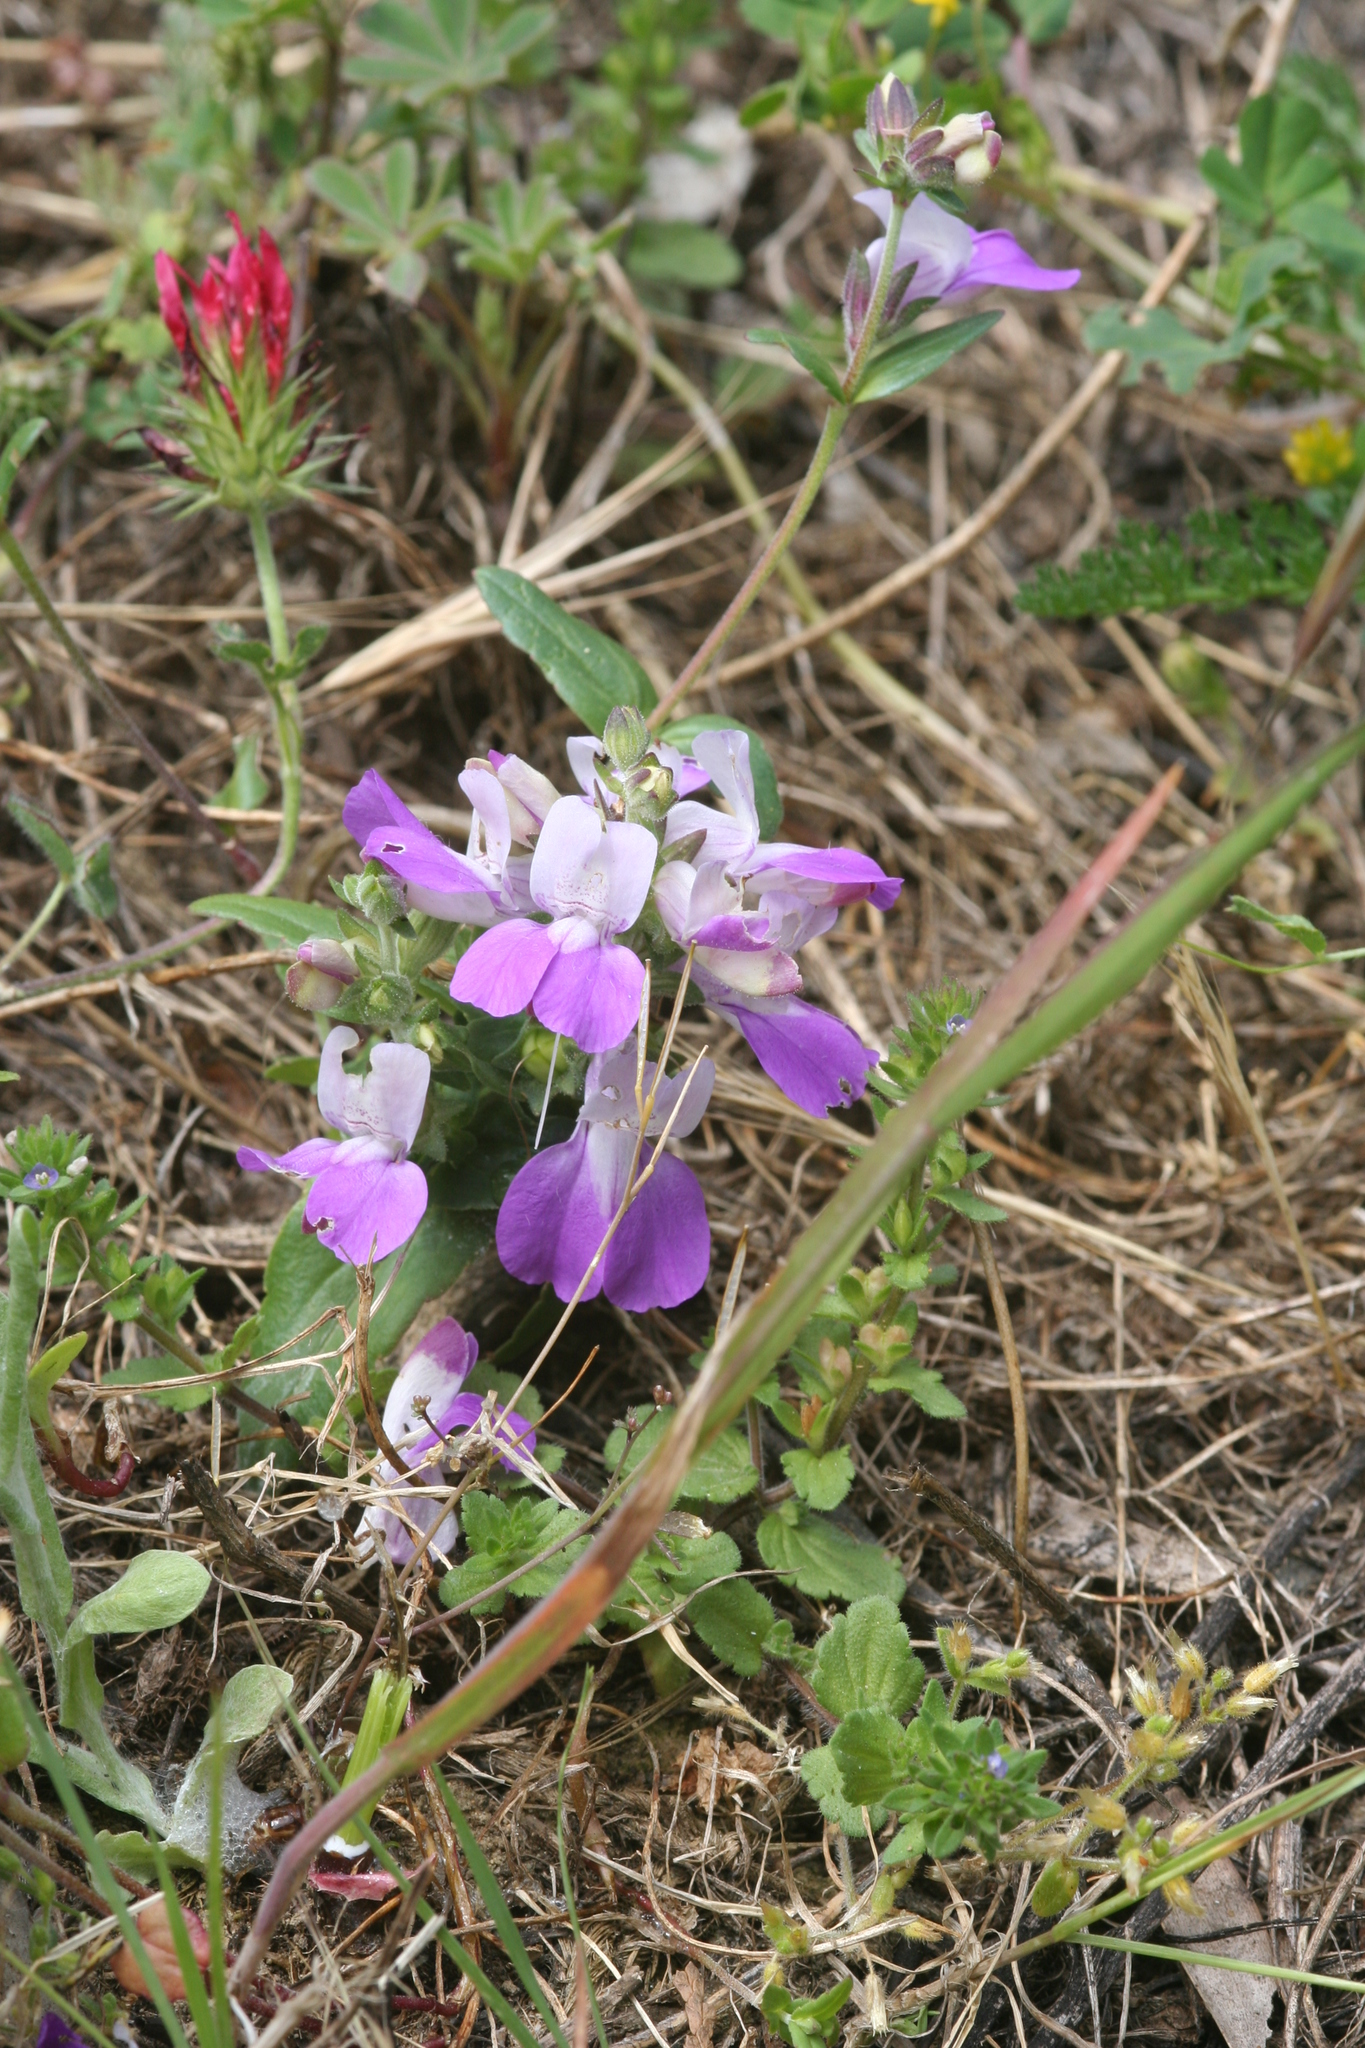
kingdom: Plantae
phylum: Tracheophyta
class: Magnoliopsida
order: Lamiales
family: Plantaginaceae
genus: Collinsia
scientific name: Collinsia heterophylla
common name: Chinese-houses
